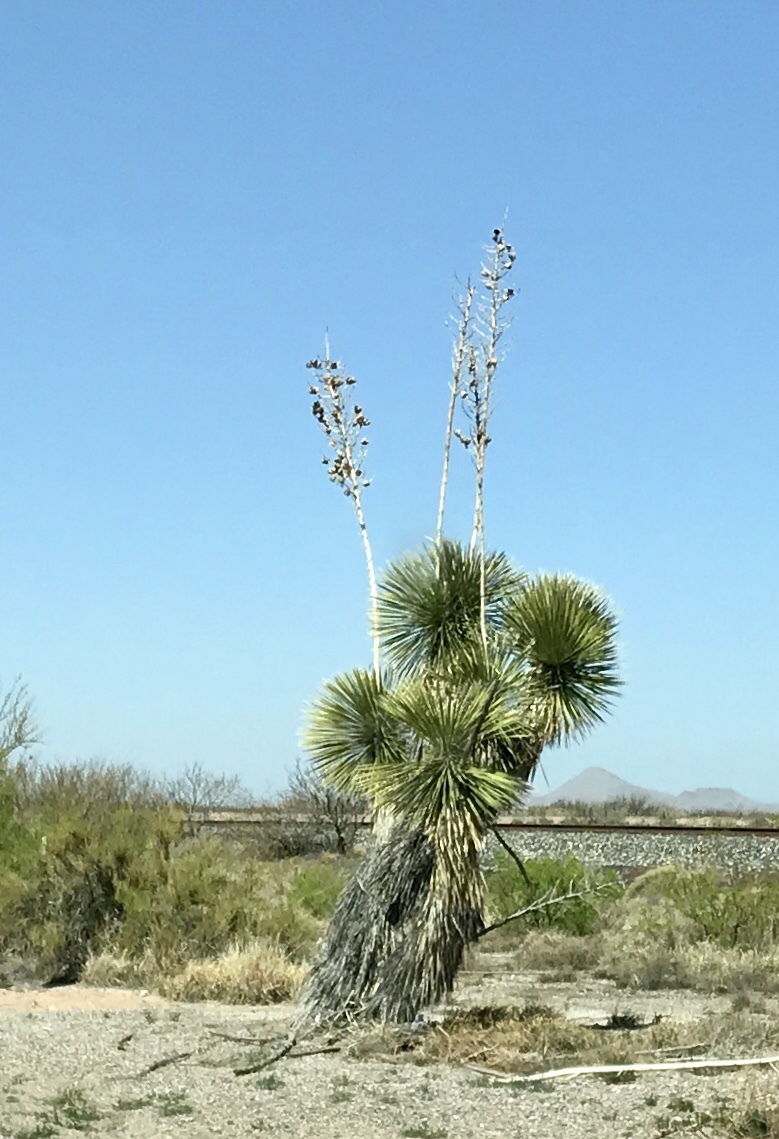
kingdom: Plantae
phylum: Tracheophyta
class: Liliopsida
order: Asparagales
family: Asparagaceae
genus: Yucca
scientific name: Yucca elata
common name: Palmella
